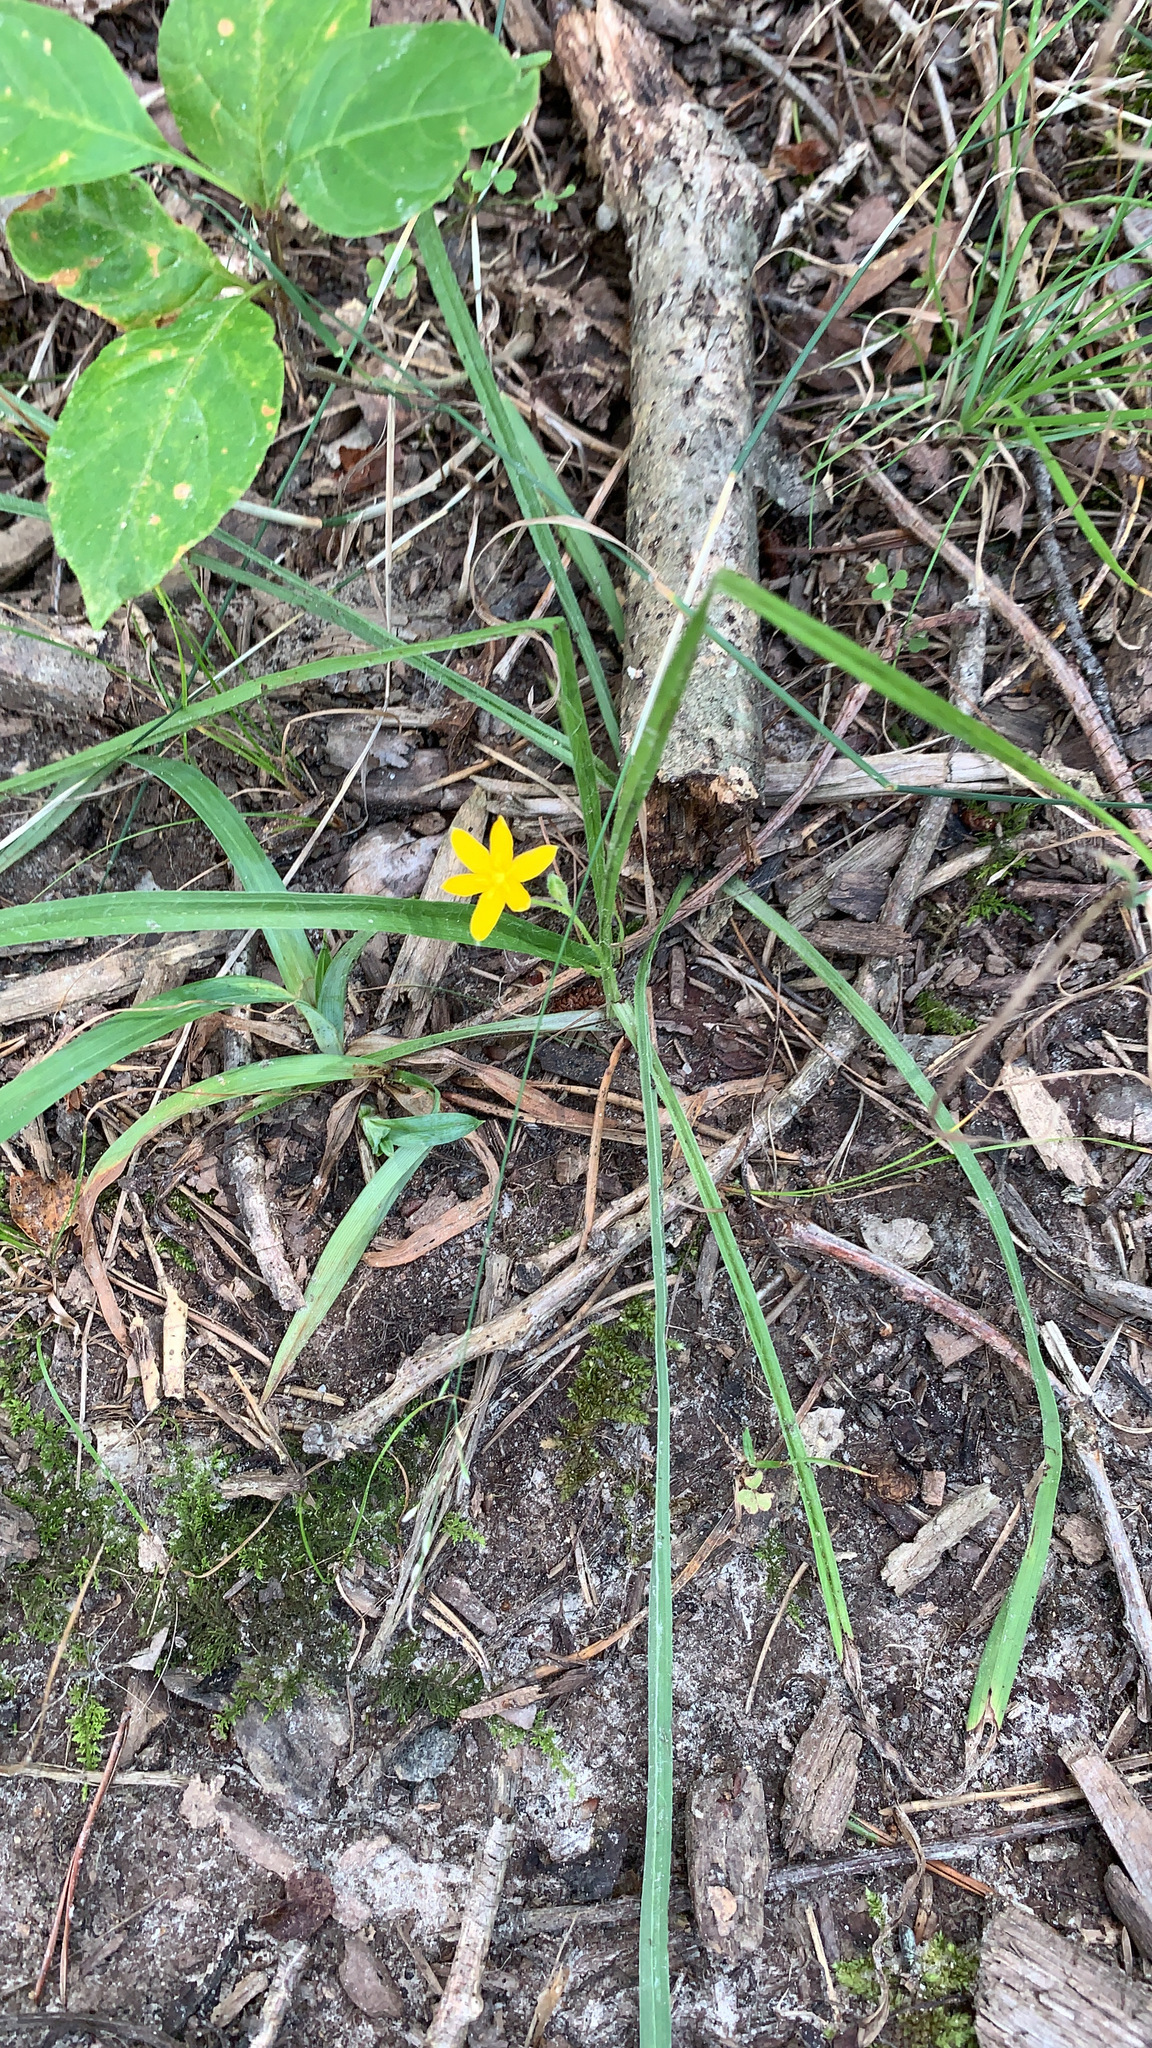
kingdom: Plantae
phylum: Tracheophyta
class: Liliopsida
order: Asparagales
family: Hypoxidaceae
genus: Hypoxis
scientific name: Hypoxis hirsuta
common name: Common goldstar
